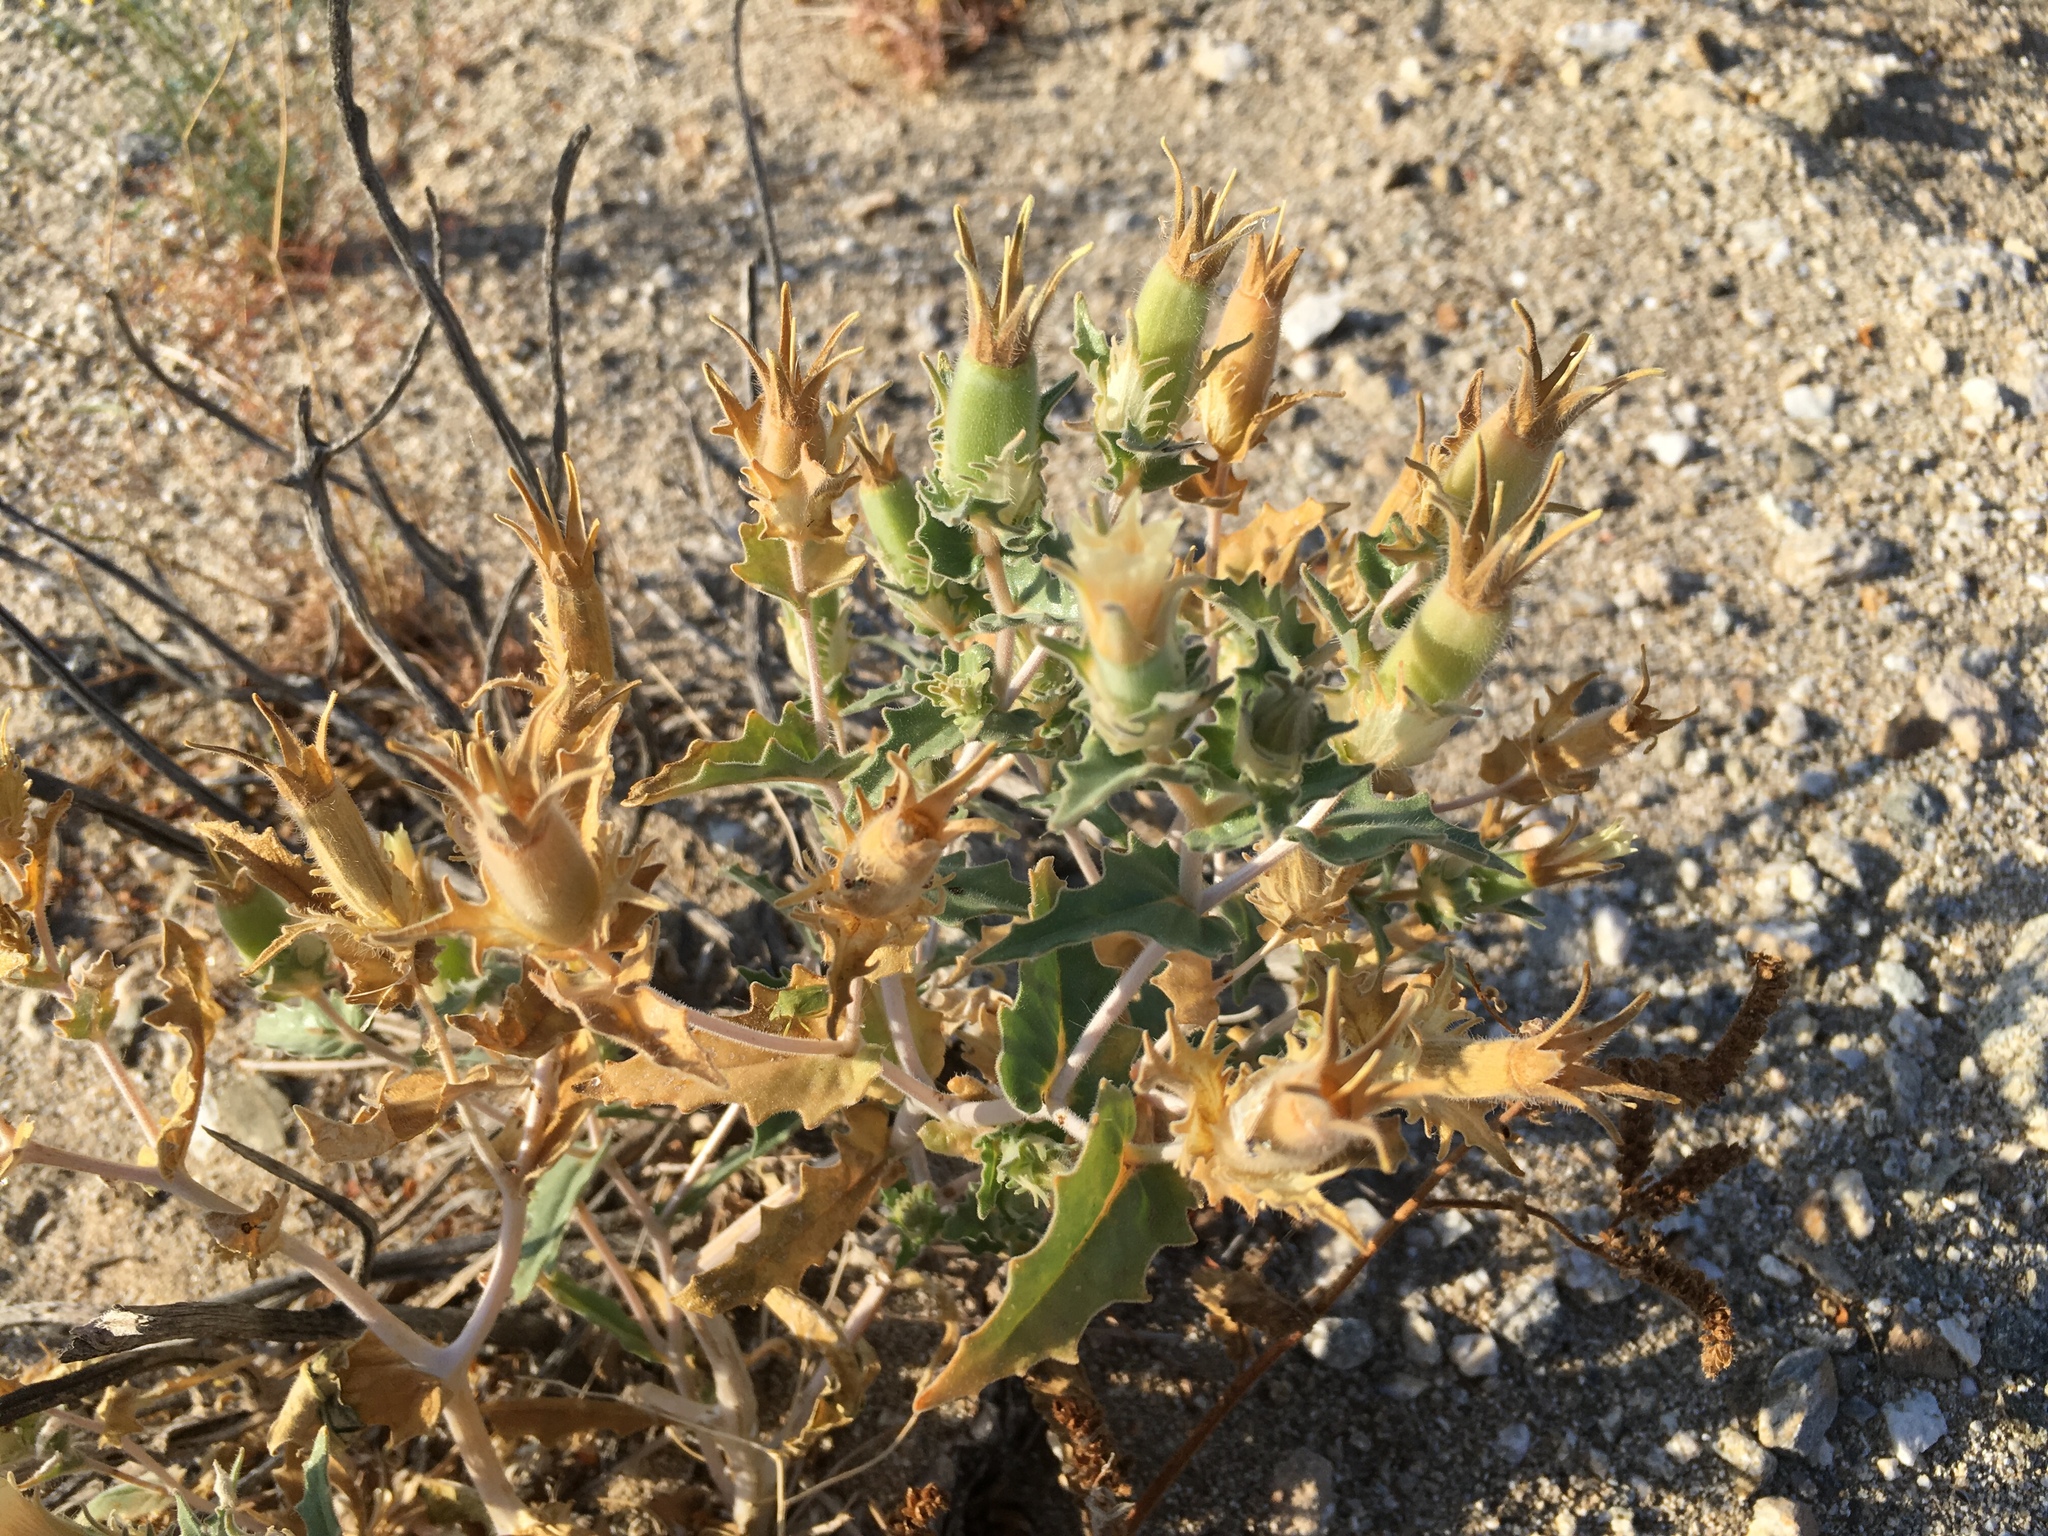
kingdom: Plantae
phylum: Tracheophyta
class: Magnoliopsida
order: Cornales
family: Loasaceae
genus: Mentzelia
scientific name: Mentzelia involucrata
